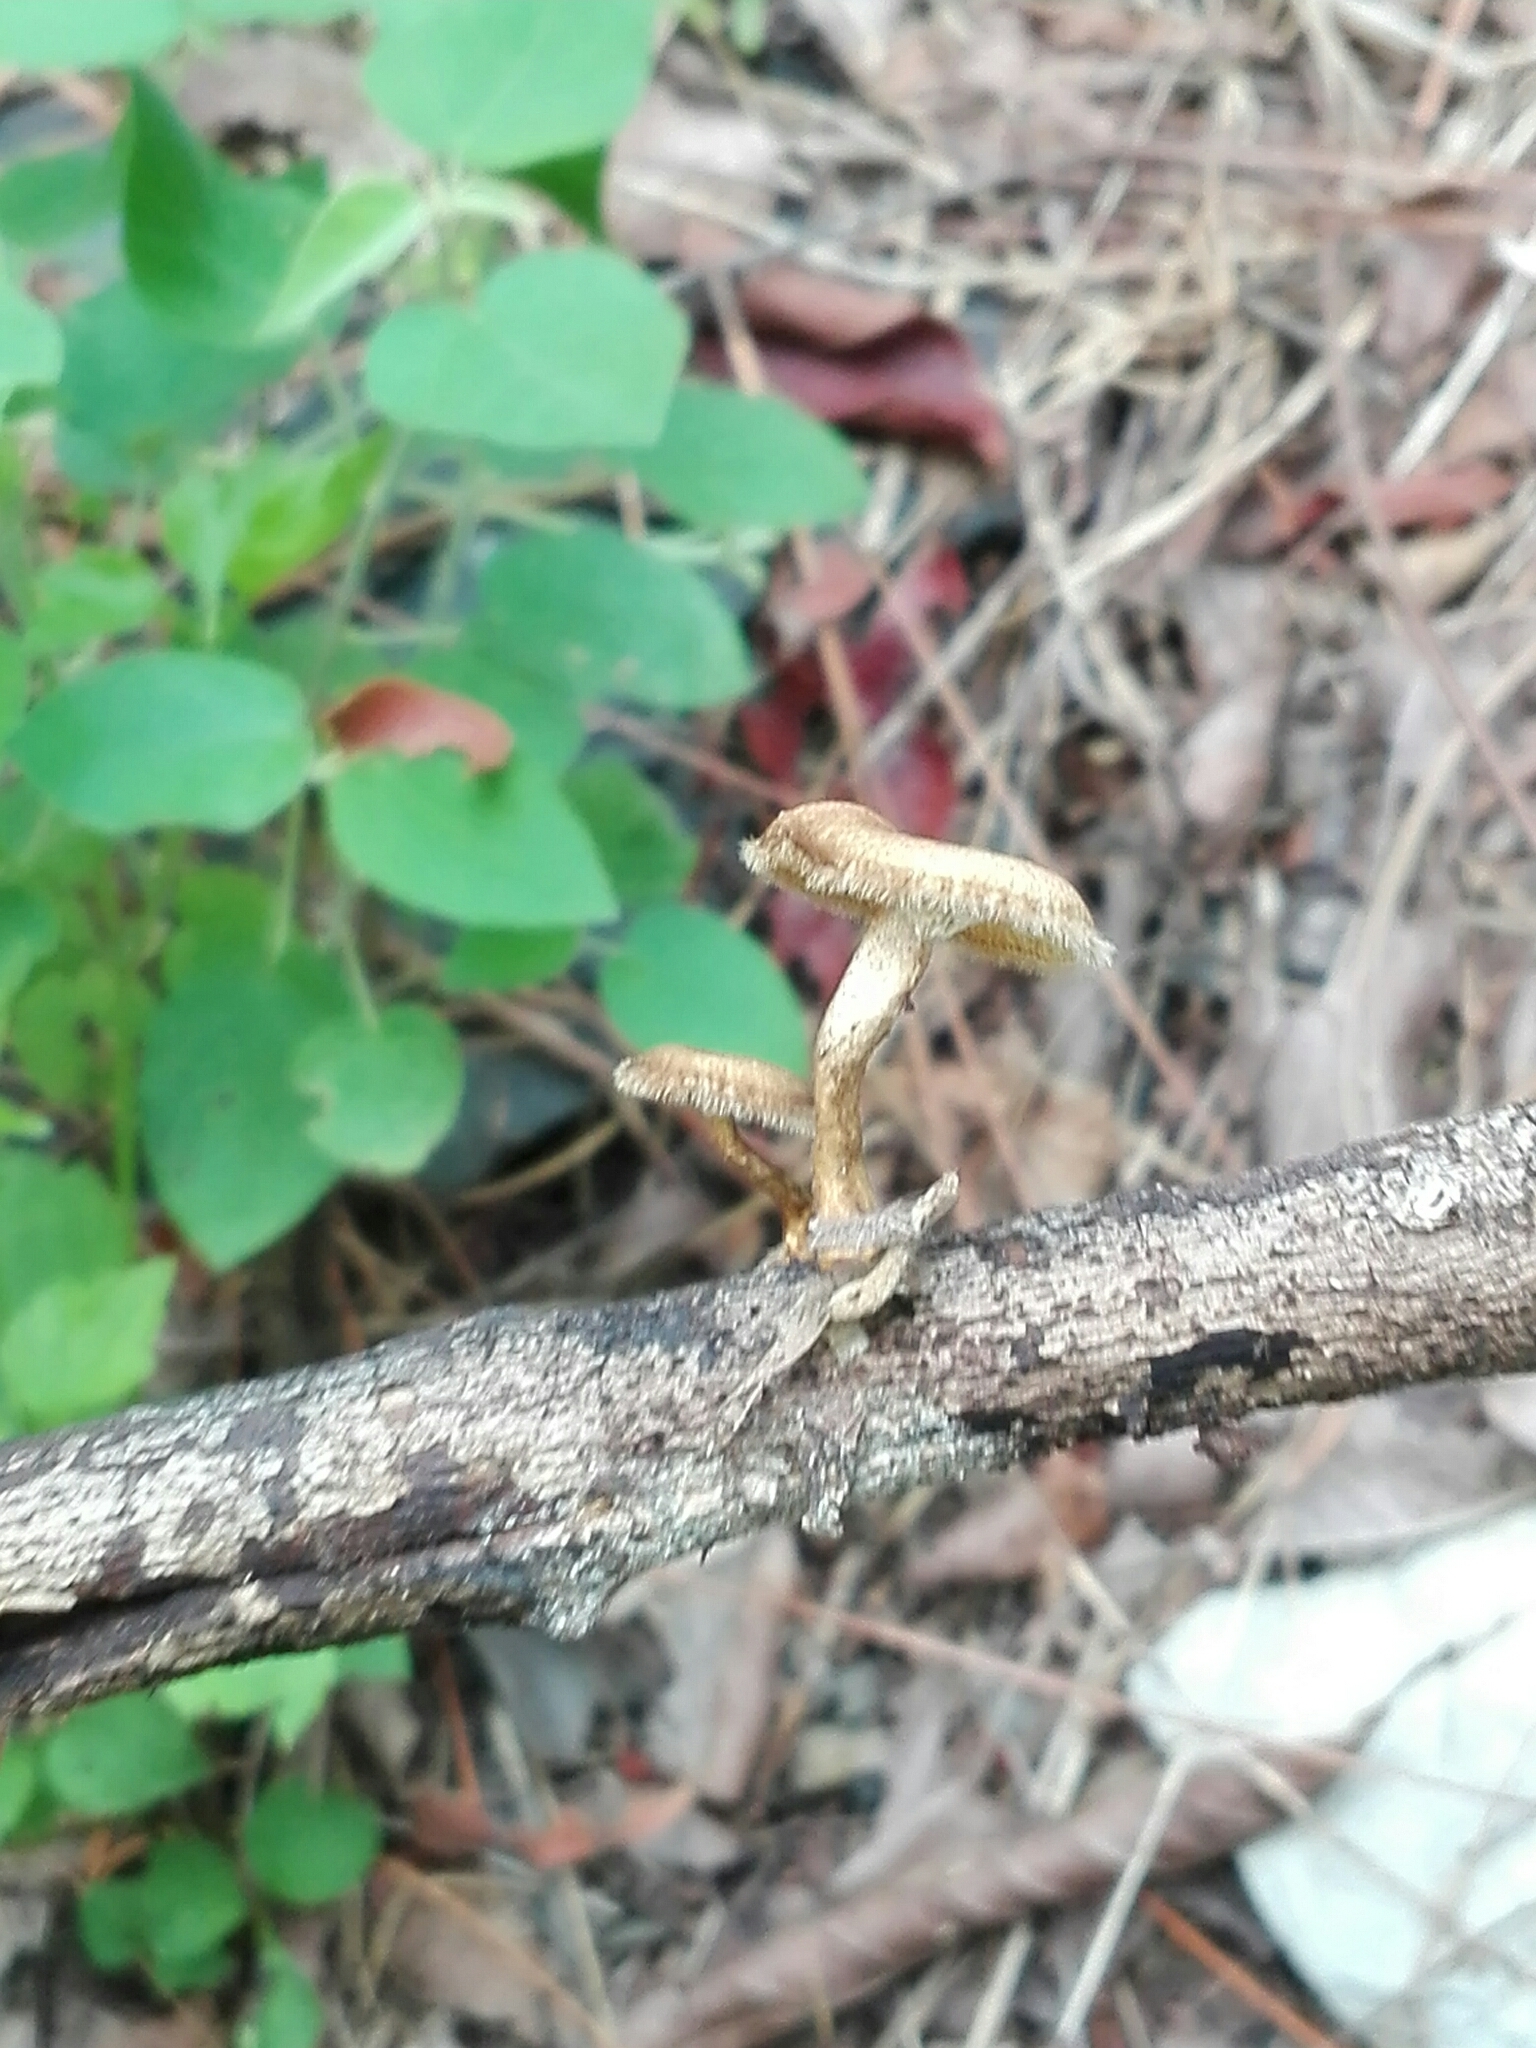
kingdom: Fungi
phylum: Basidiomycota
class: Agaricomycetes
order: Polyporales
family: Polyporaceae
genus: Lentinus
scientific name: Lentinus arcularius
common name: Spring polypore
